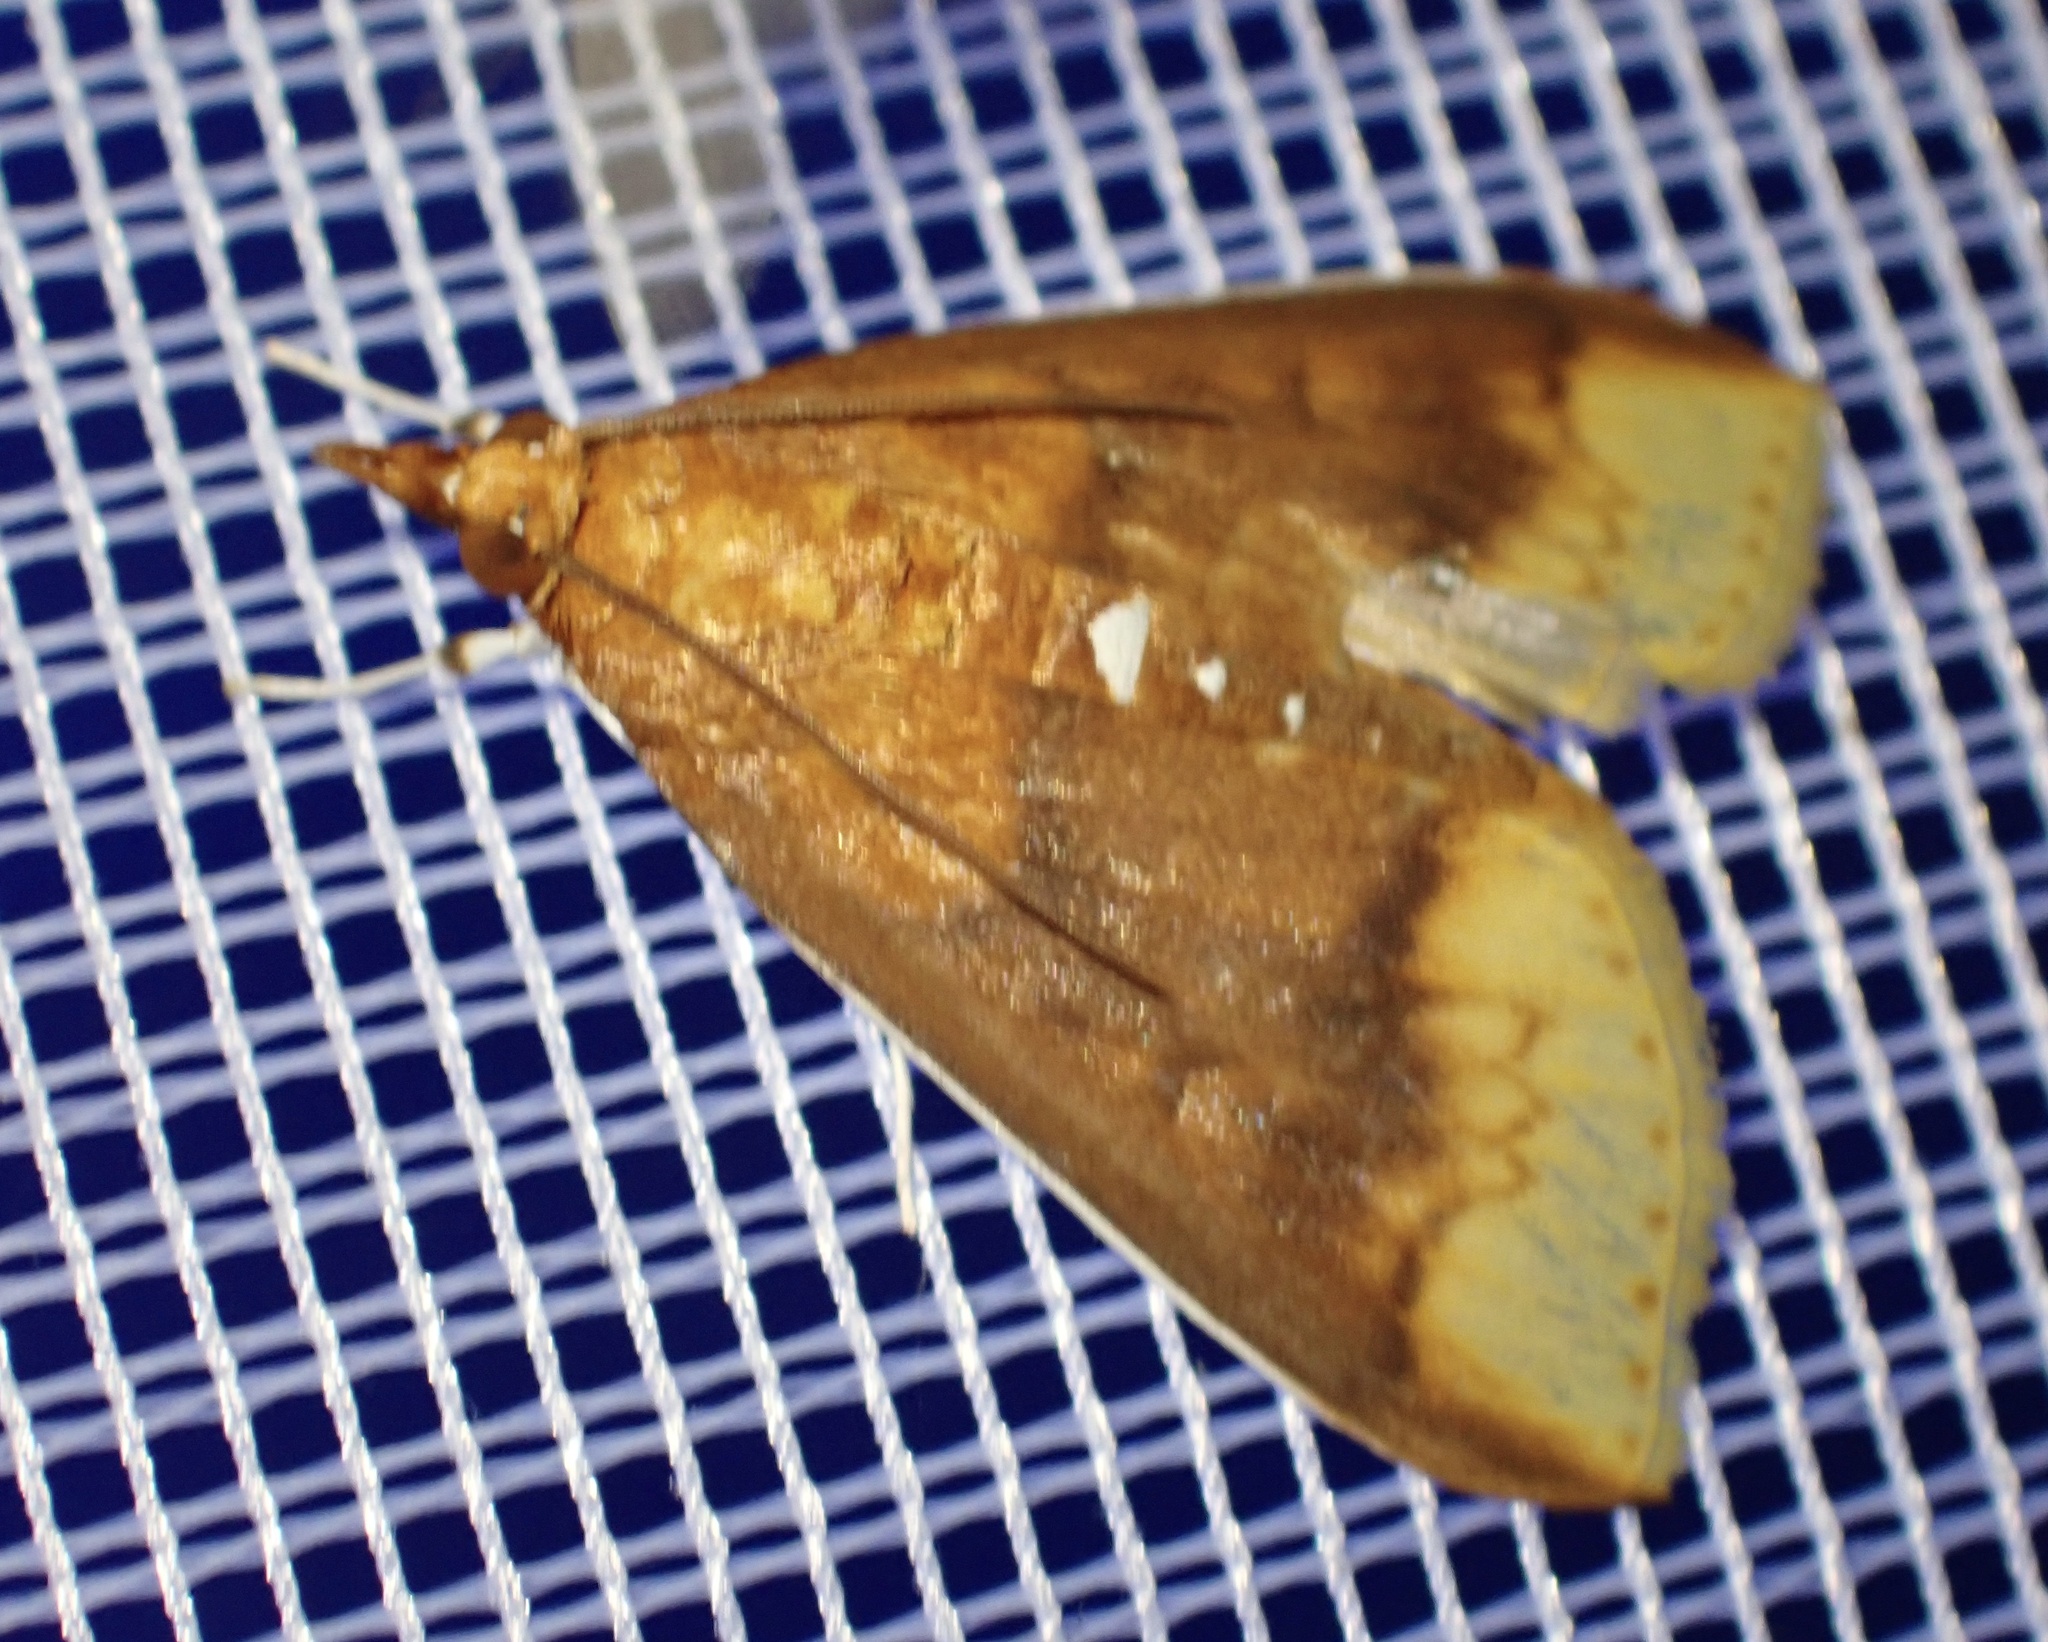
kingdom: Animalia
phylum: Arthropoda
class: Insecta
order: Lepidoptera
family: Crambidae
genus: Lipararchis
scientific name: Lipararchis tranquillalis
